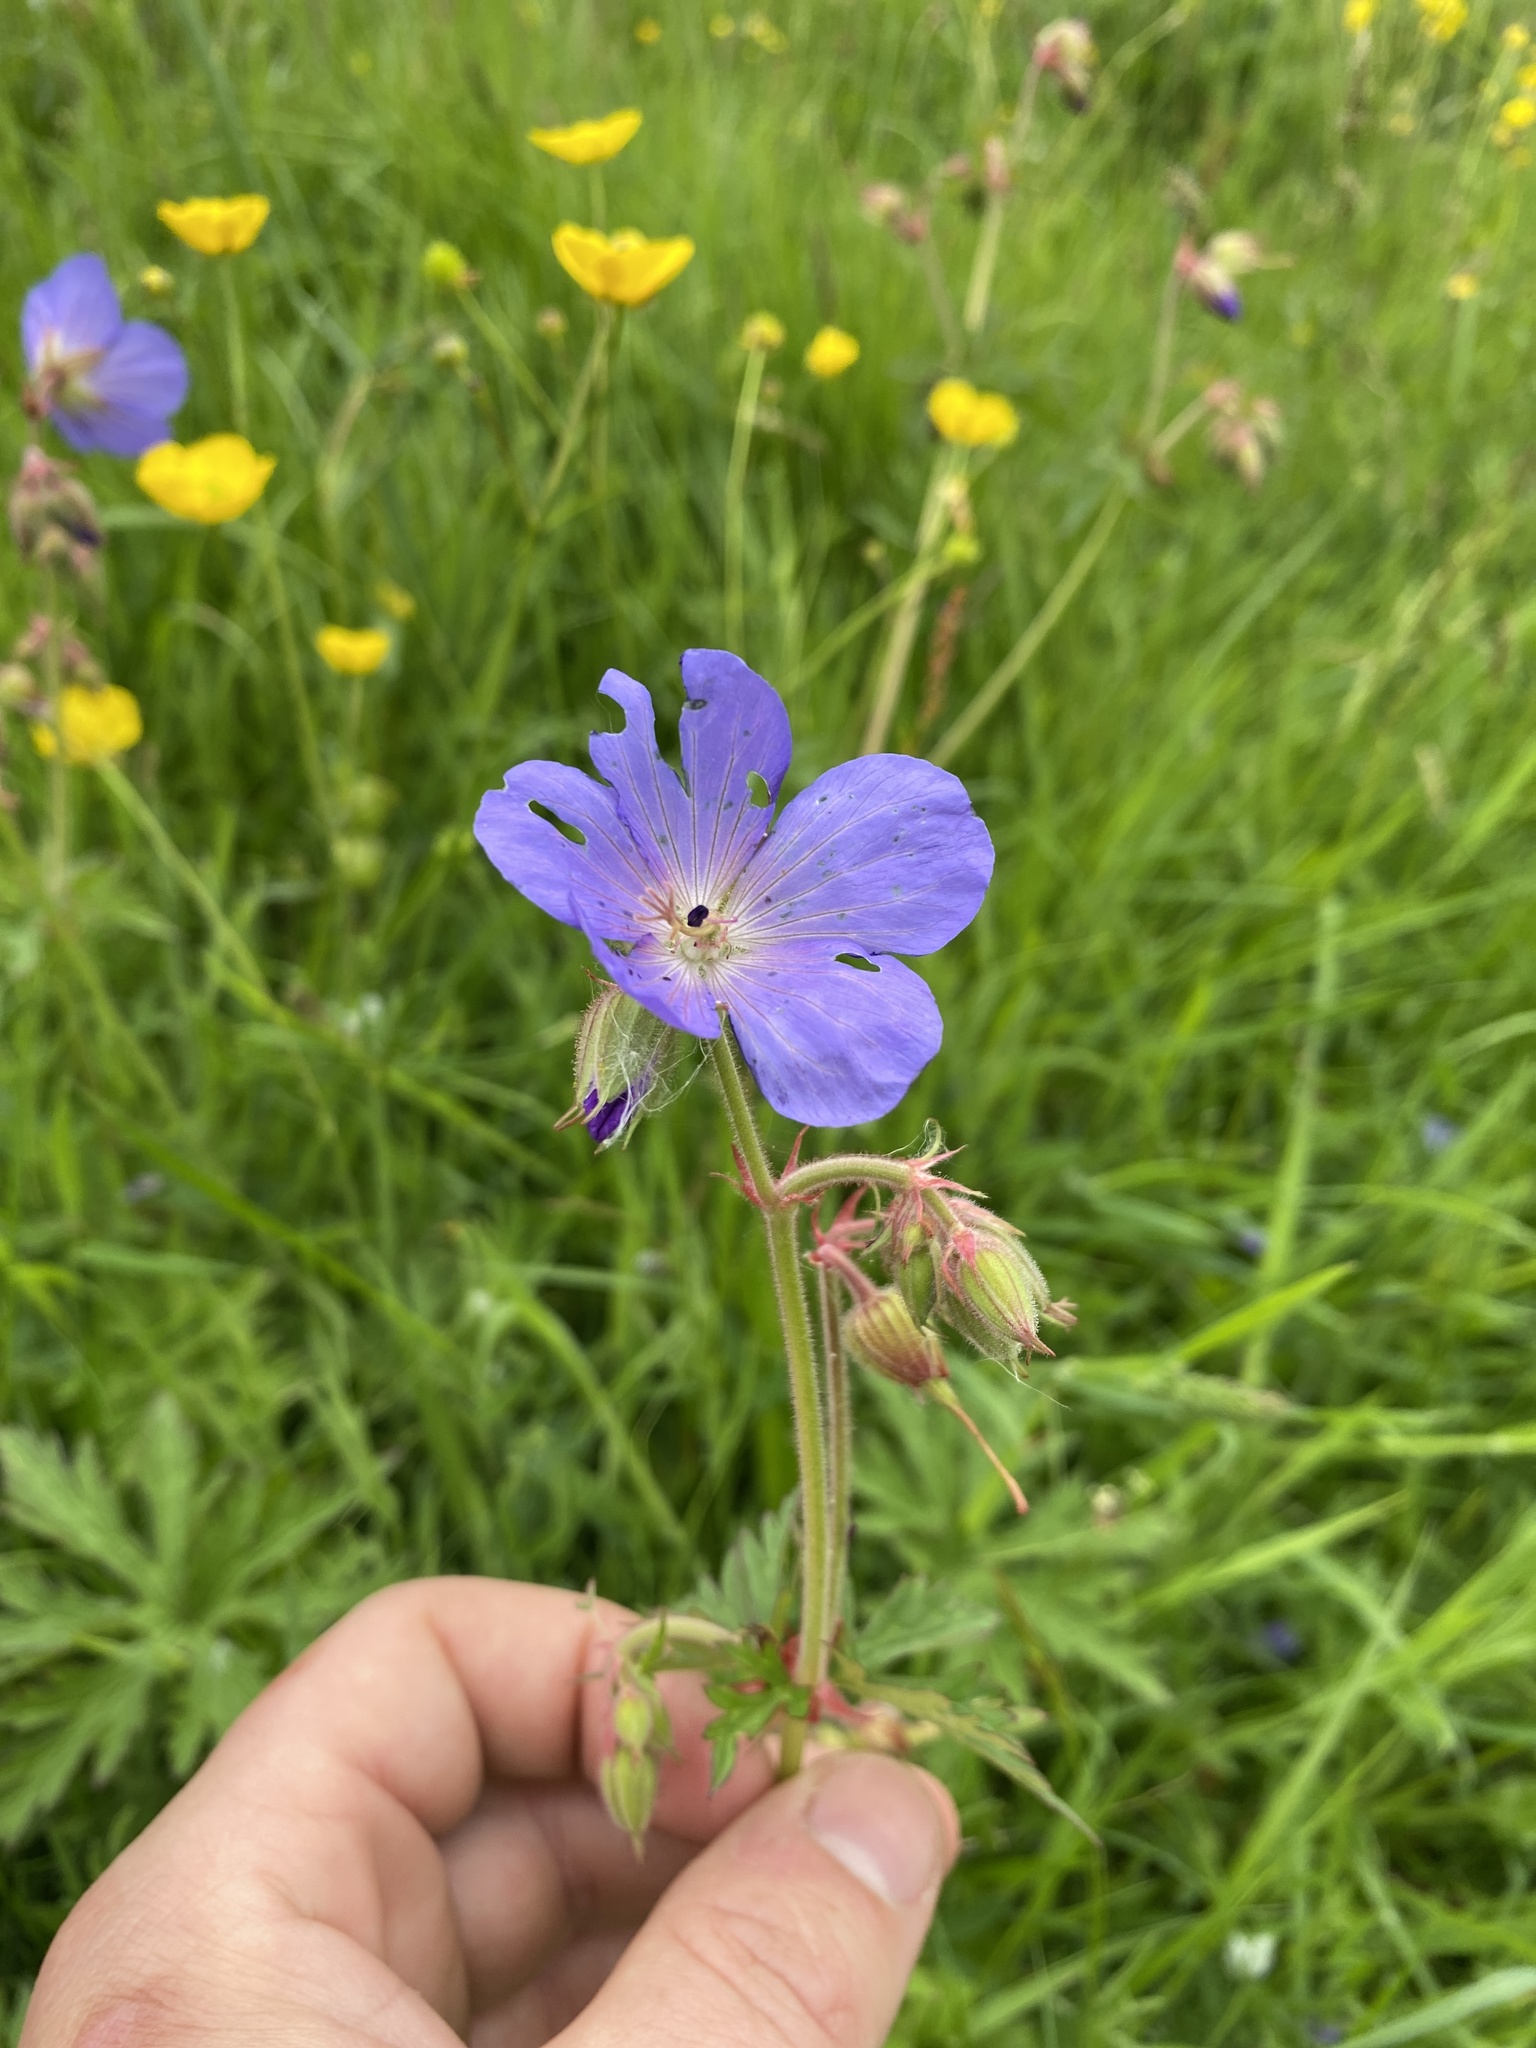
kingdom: Plantae
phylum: Tracheophyta
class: Magnoliopsida
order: Geraniales
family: Geraniaceae
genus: Geranium
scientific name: Geranium pratense
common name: Meadow crane's-bill
